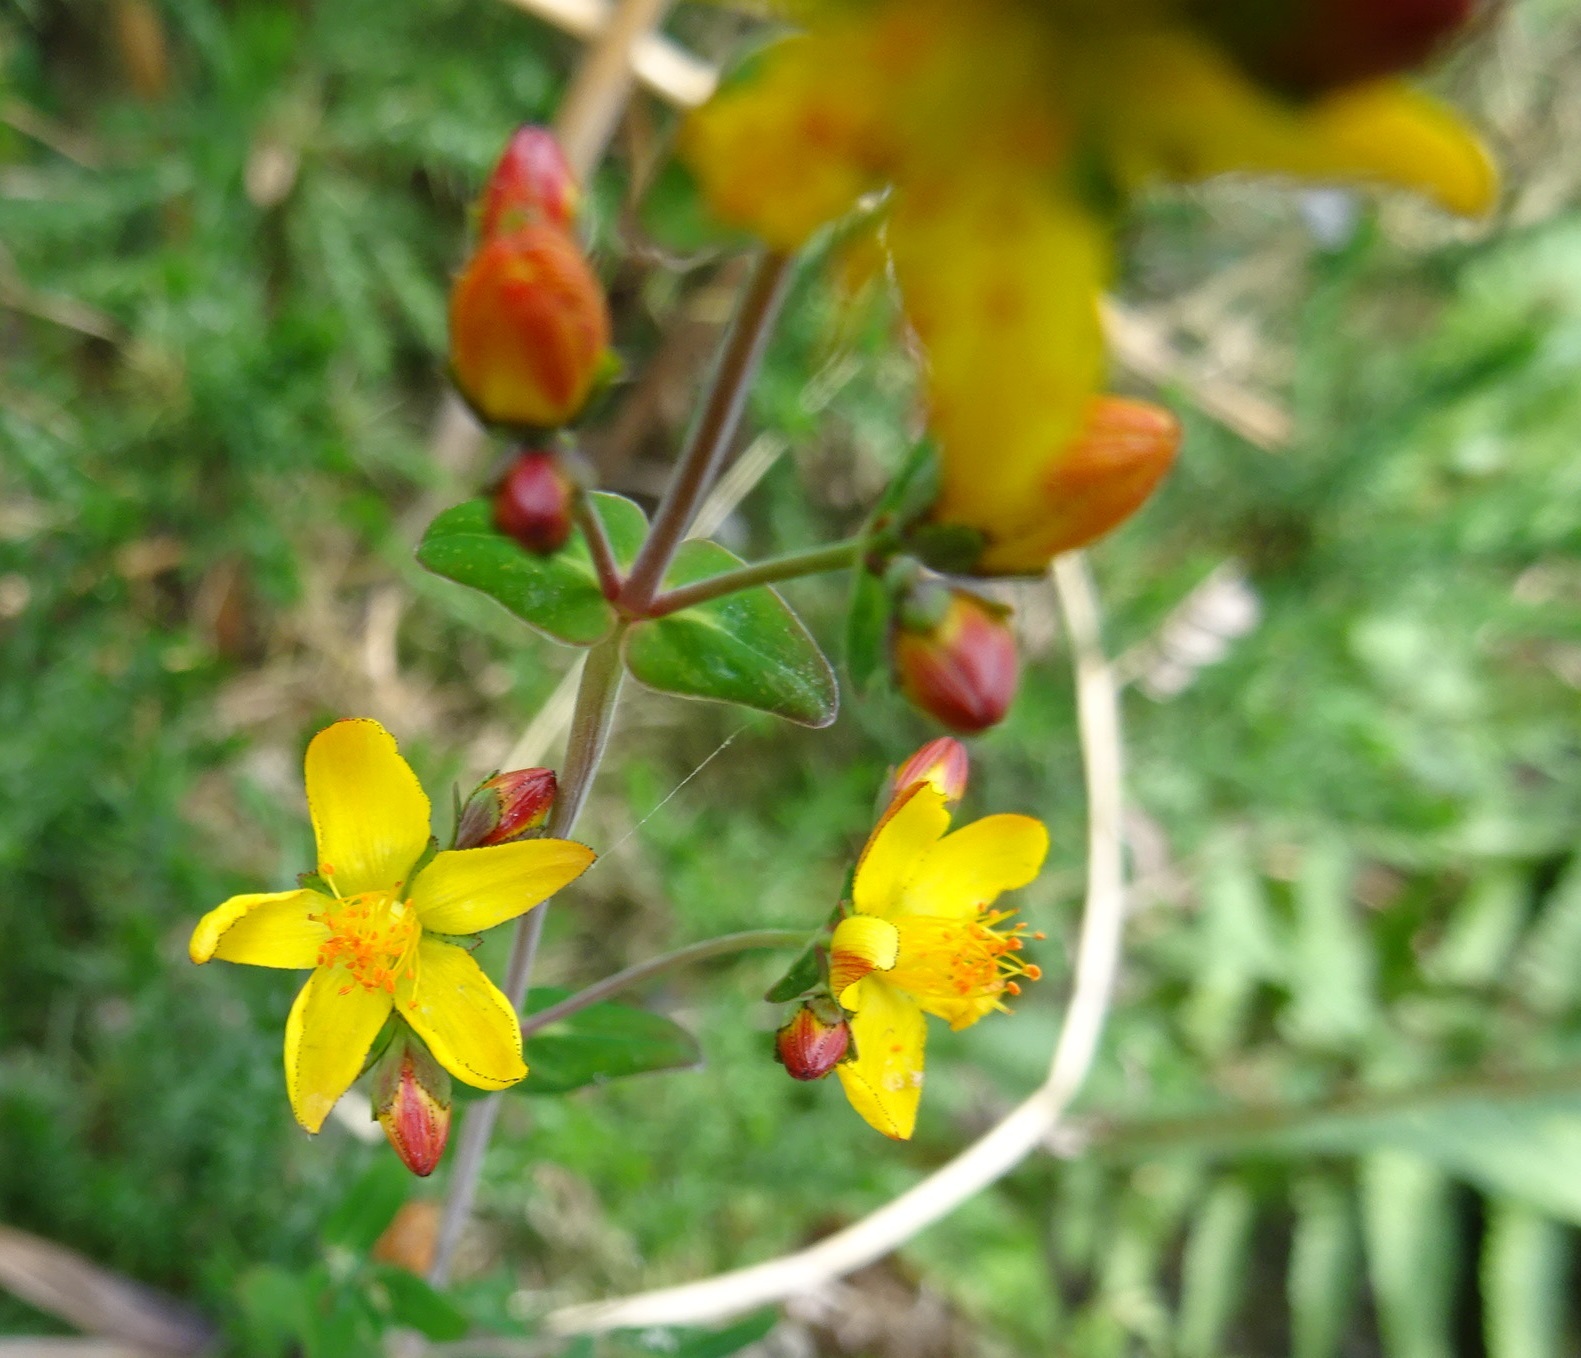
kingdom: Plantae
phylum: Tracheophyta
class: Magnoliopsida
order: Malpighiales
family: Hypericaceae
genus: Hypericum
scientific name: Hypericum pulchrum
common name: Slender st. john's-wort
